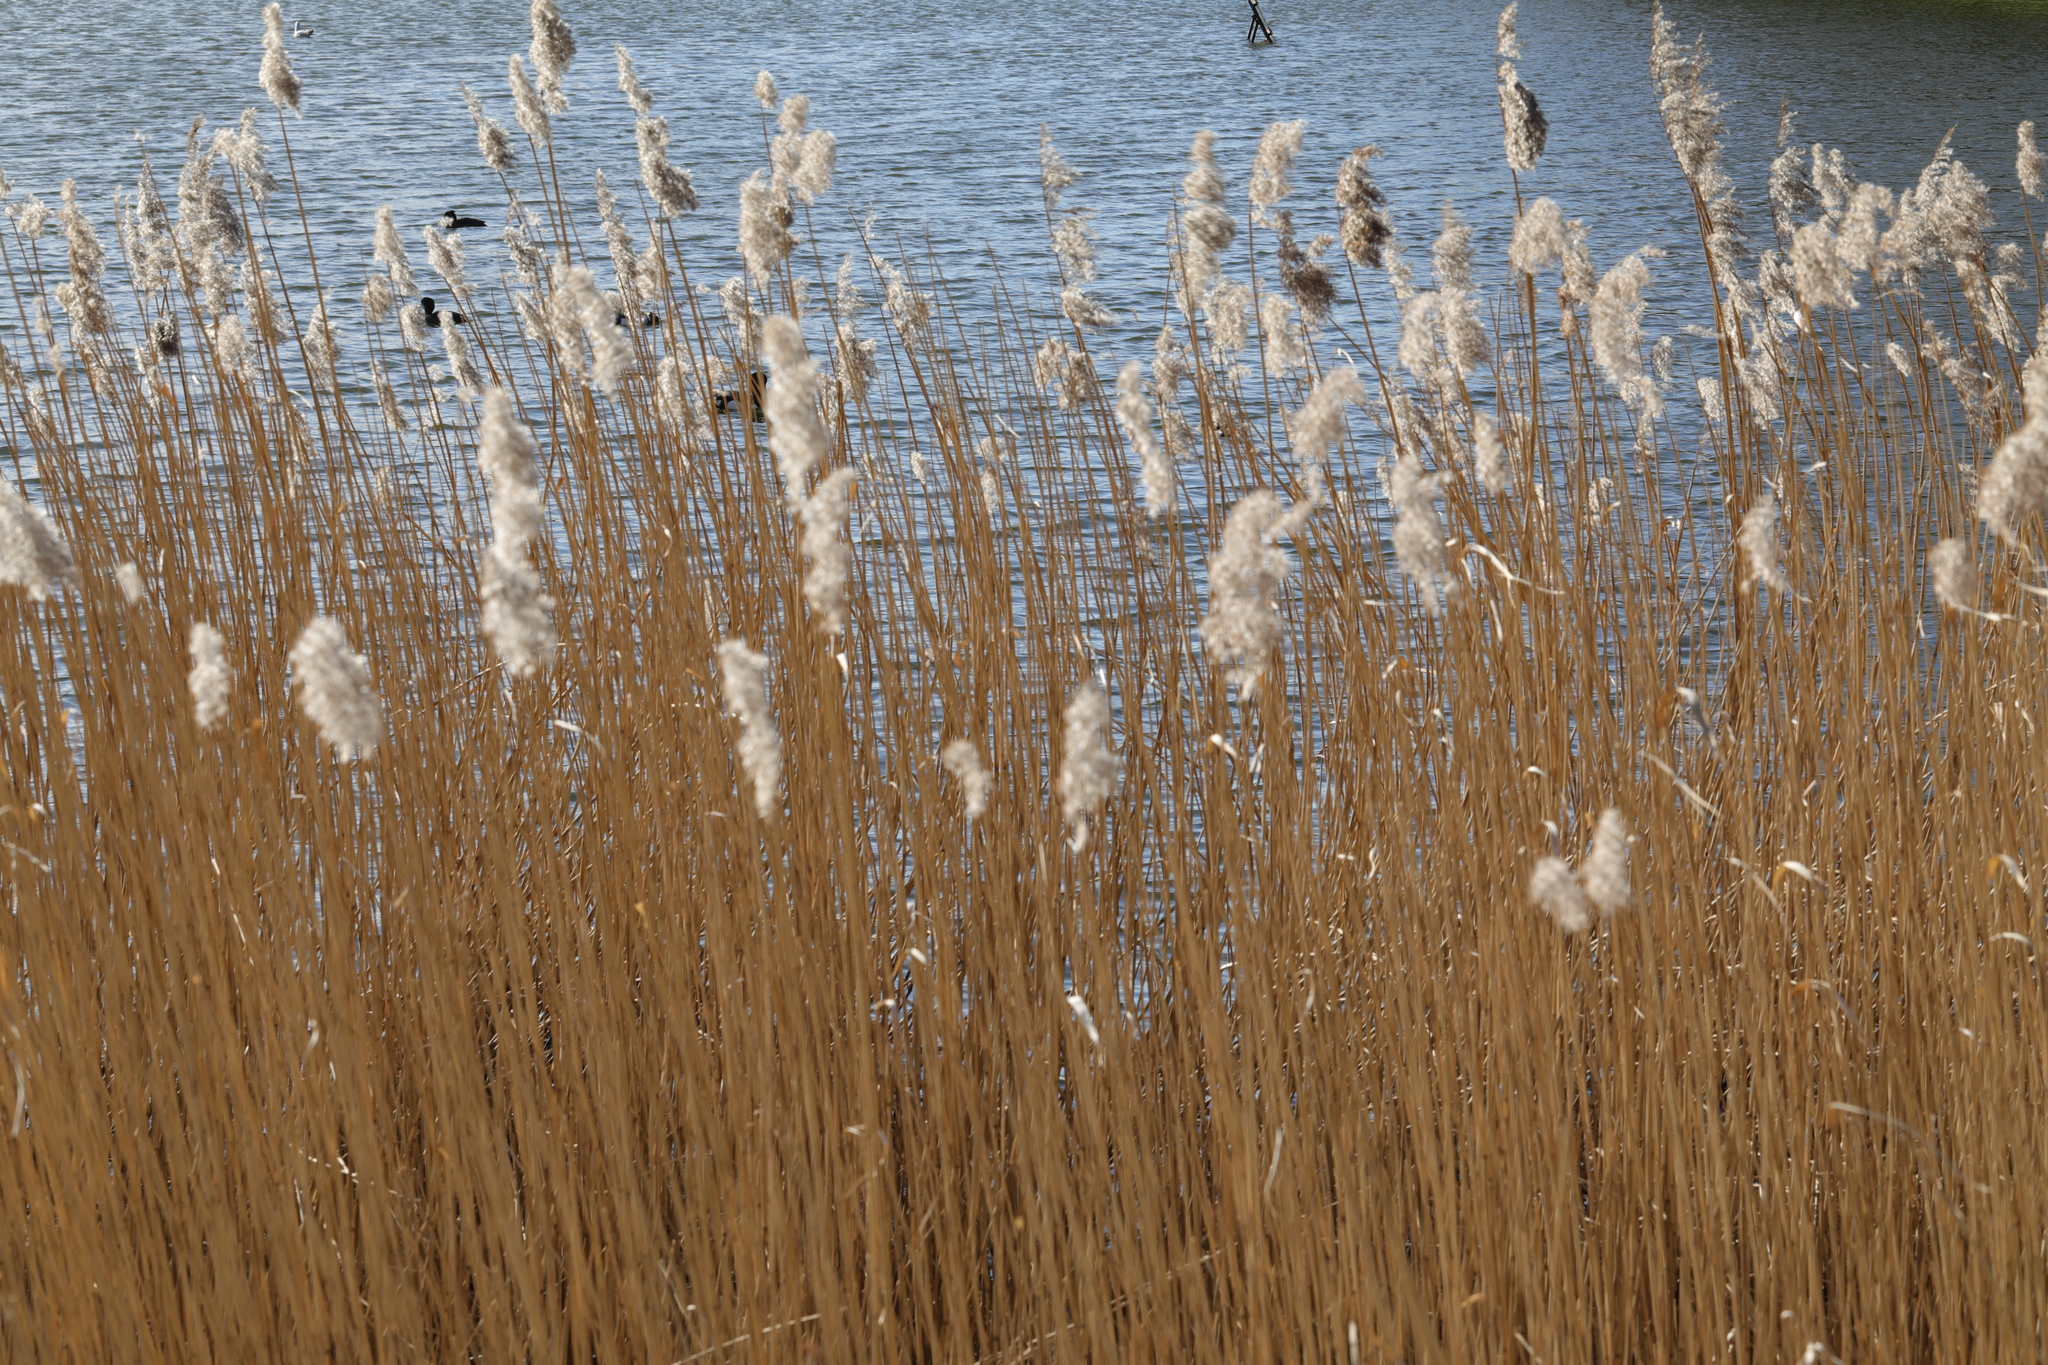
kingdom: Plantae
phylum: Tracheophyta
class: Liliopsida
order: Poales
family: Poaceae
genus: Phragmites
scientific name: Phragmites australis
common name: Common reed
